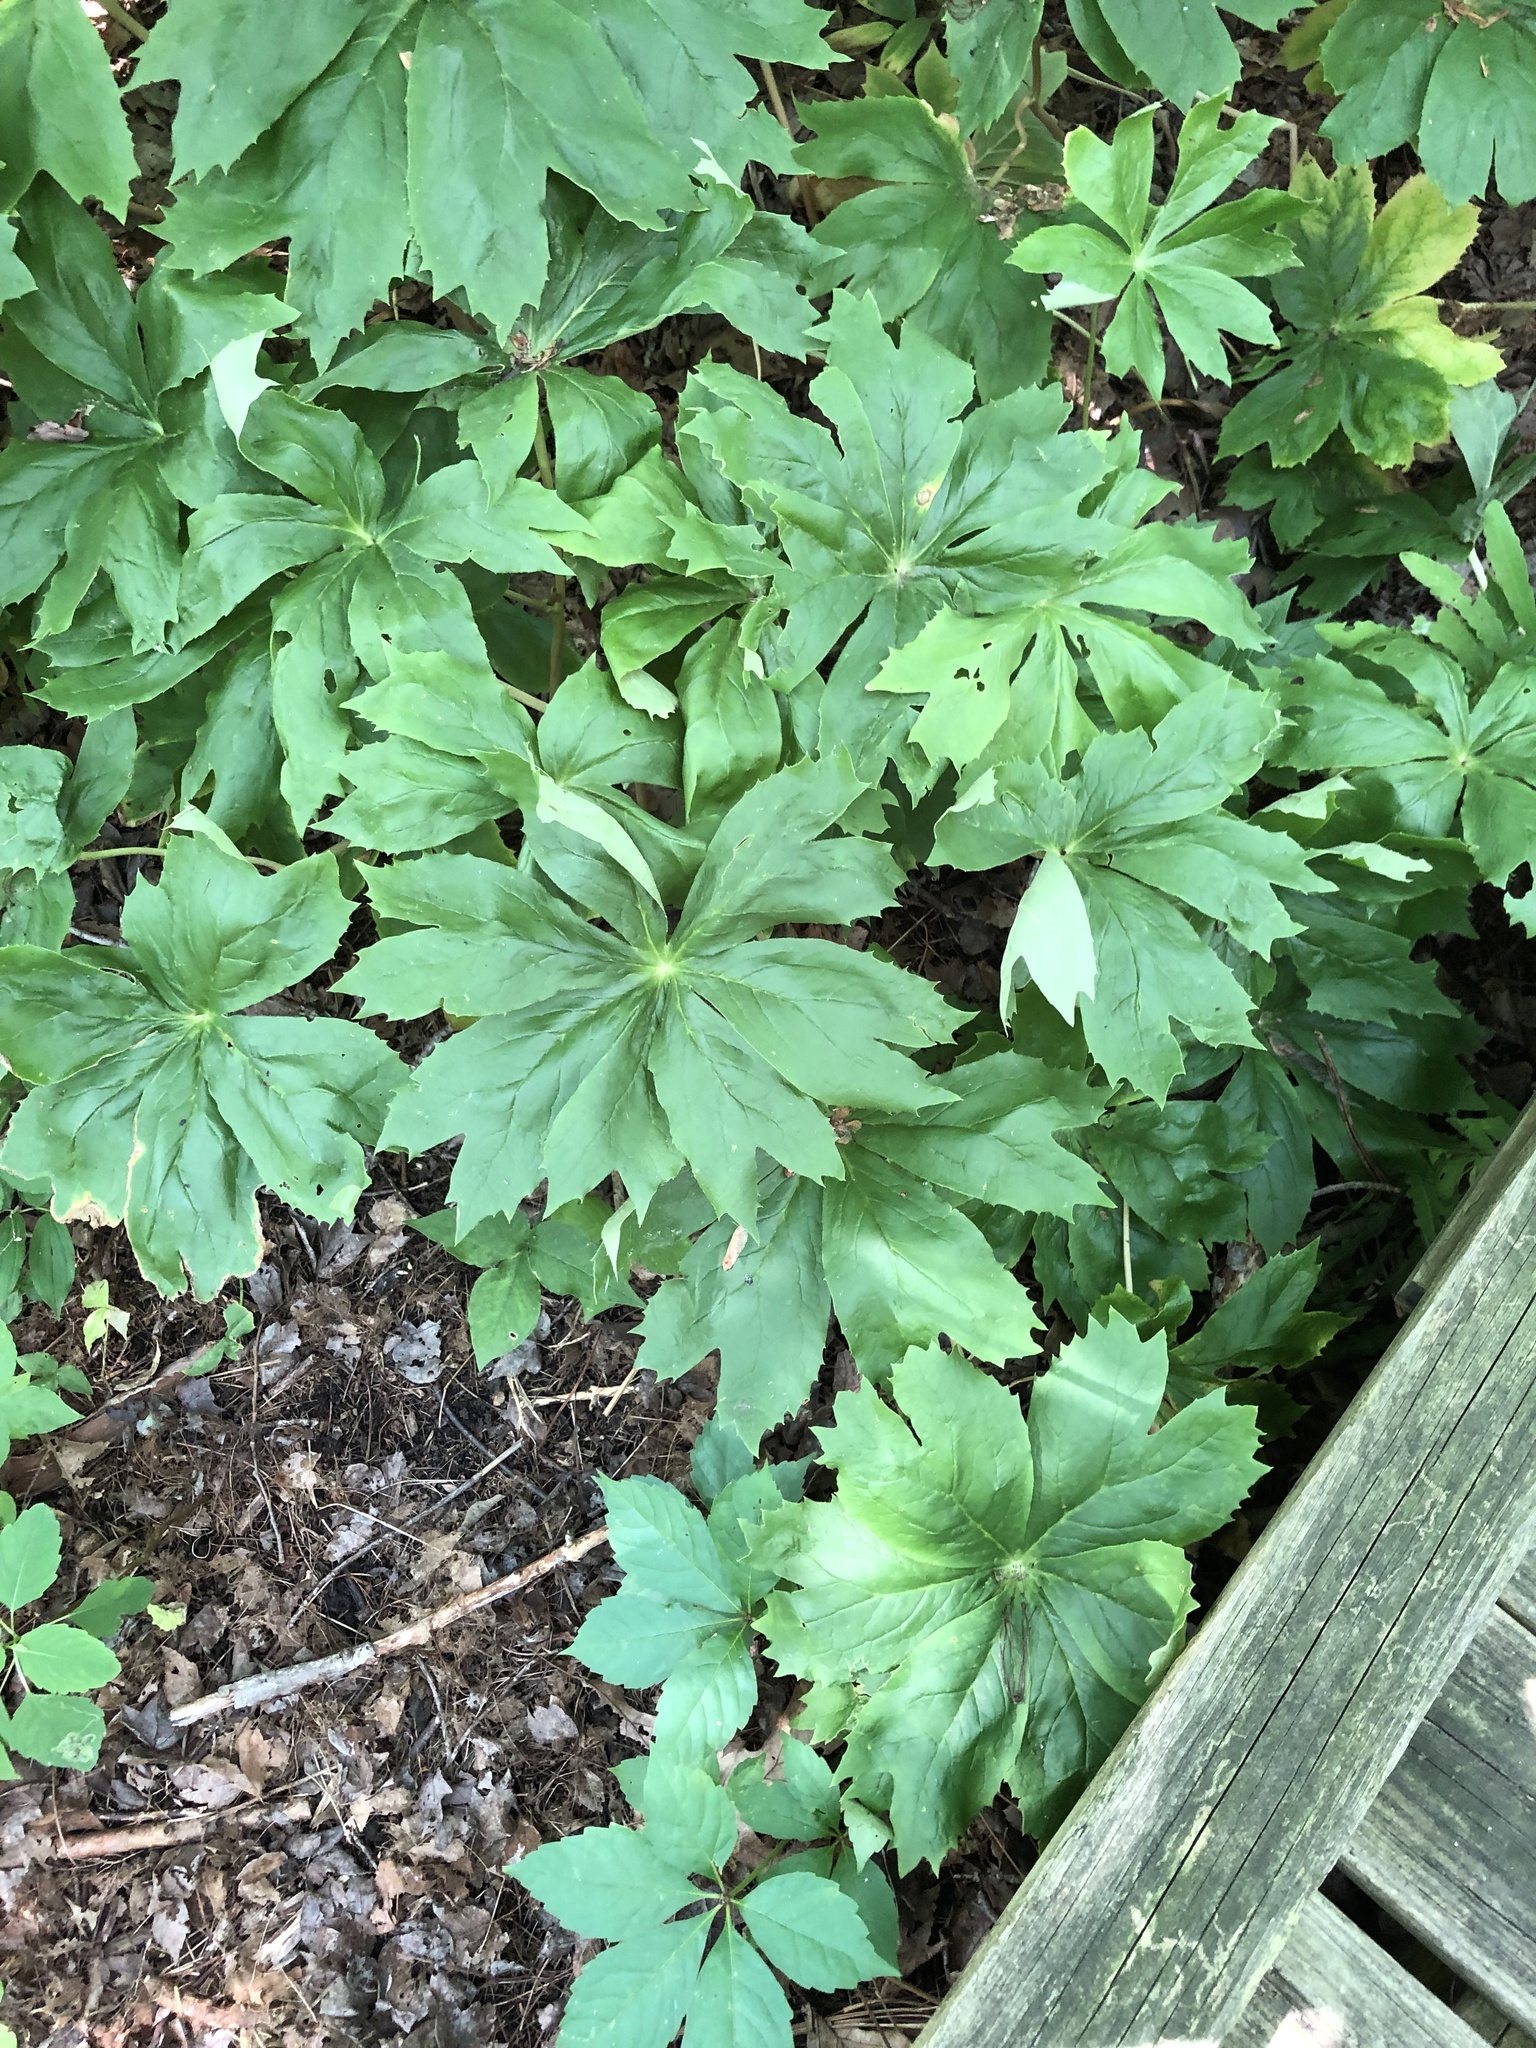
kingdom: Plantae
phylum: Tracheophyta
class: Magnoliopsida
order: Ranunculales
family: Berberidaceae
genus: Podophyllum
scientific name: Podophyllum peltatum
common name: Wild mandrake
